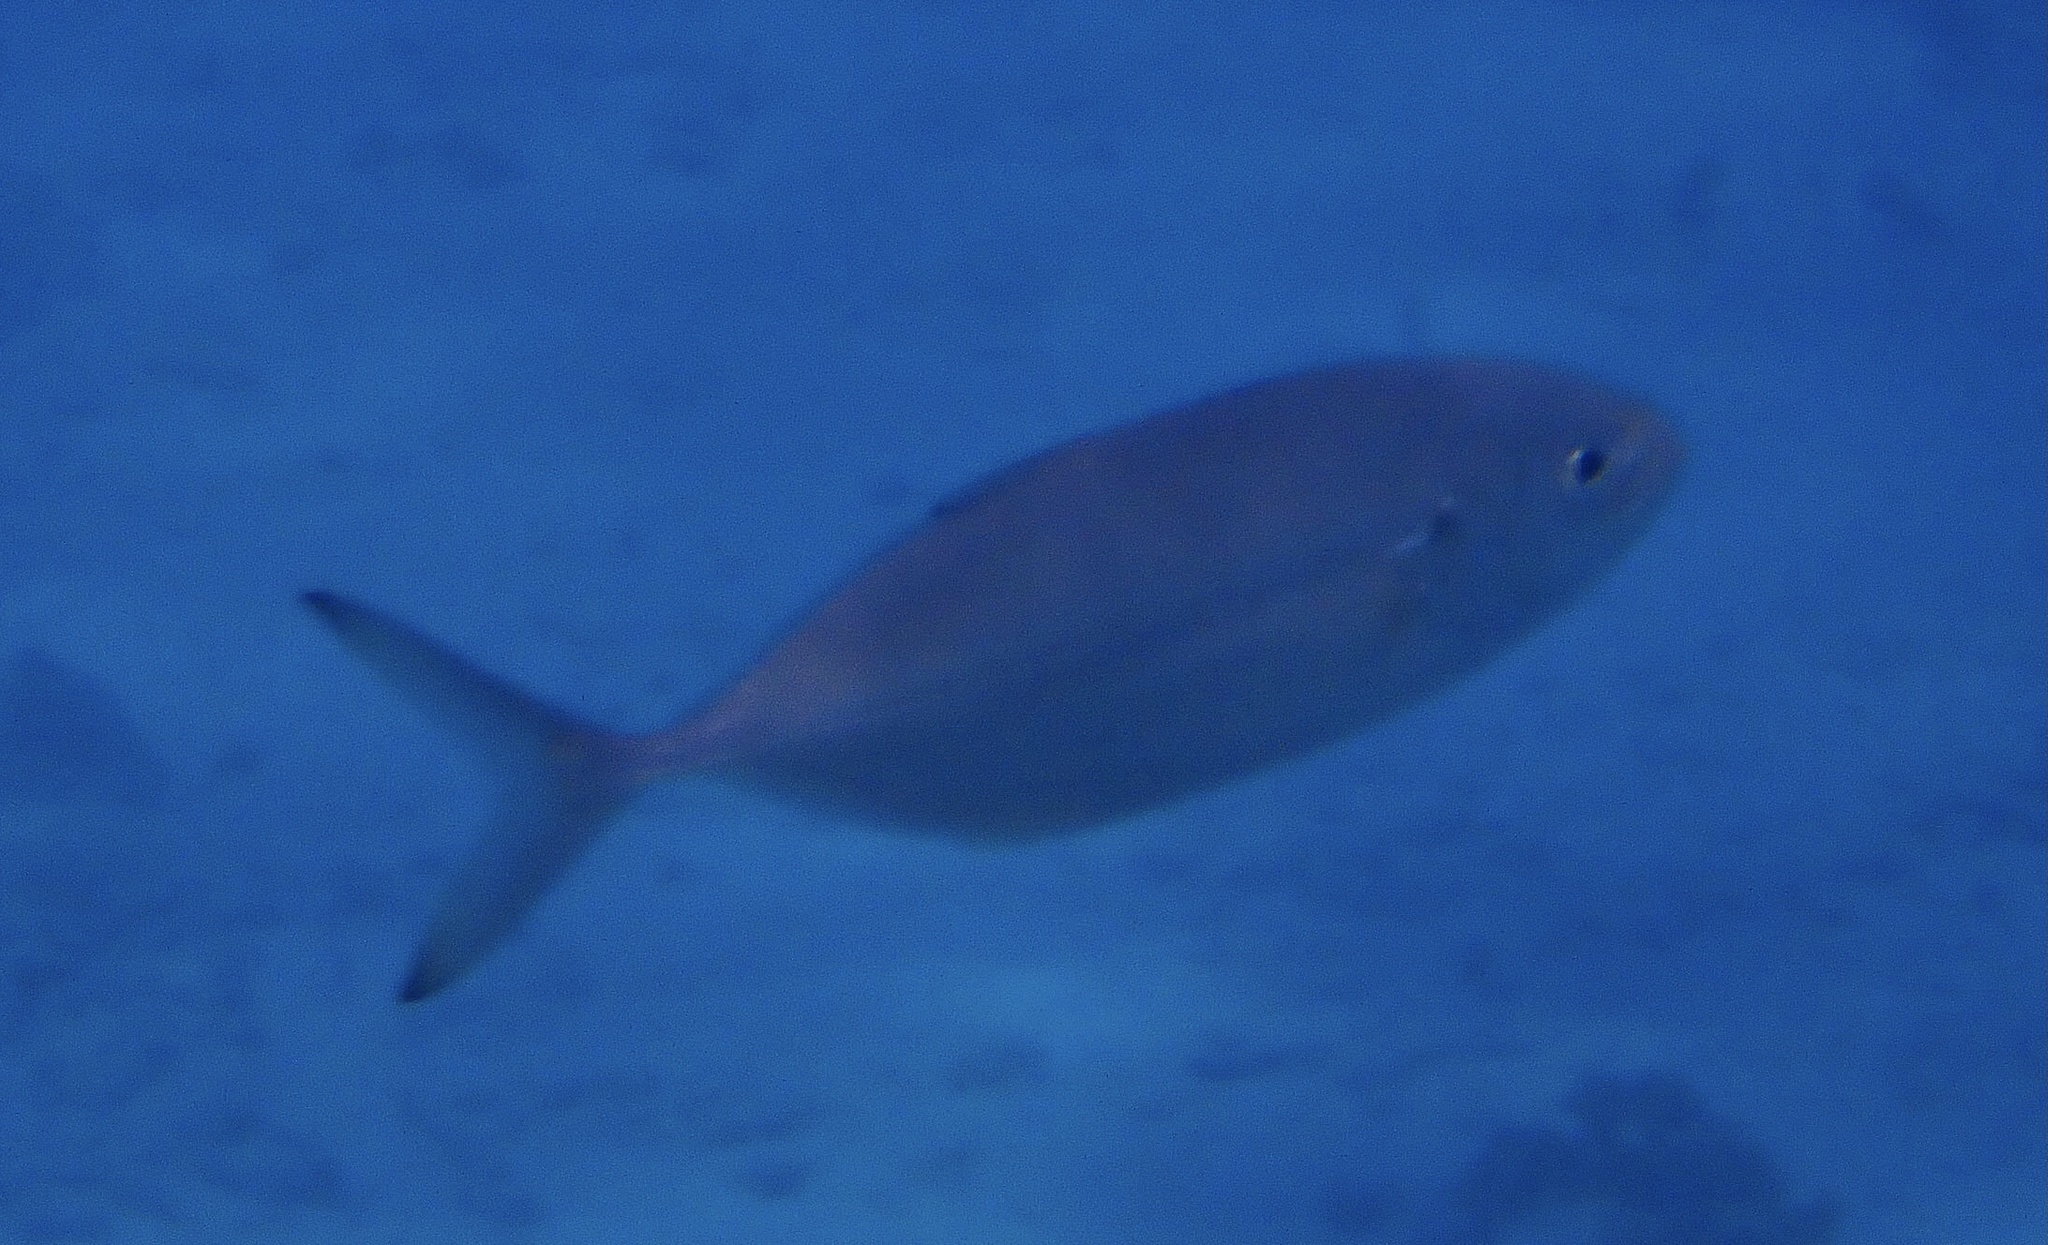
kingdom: Animalia
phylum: Chordata
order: Perciformes
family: Carangidae
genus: Caranx
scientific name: Caranx crysos
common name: Blue runner
